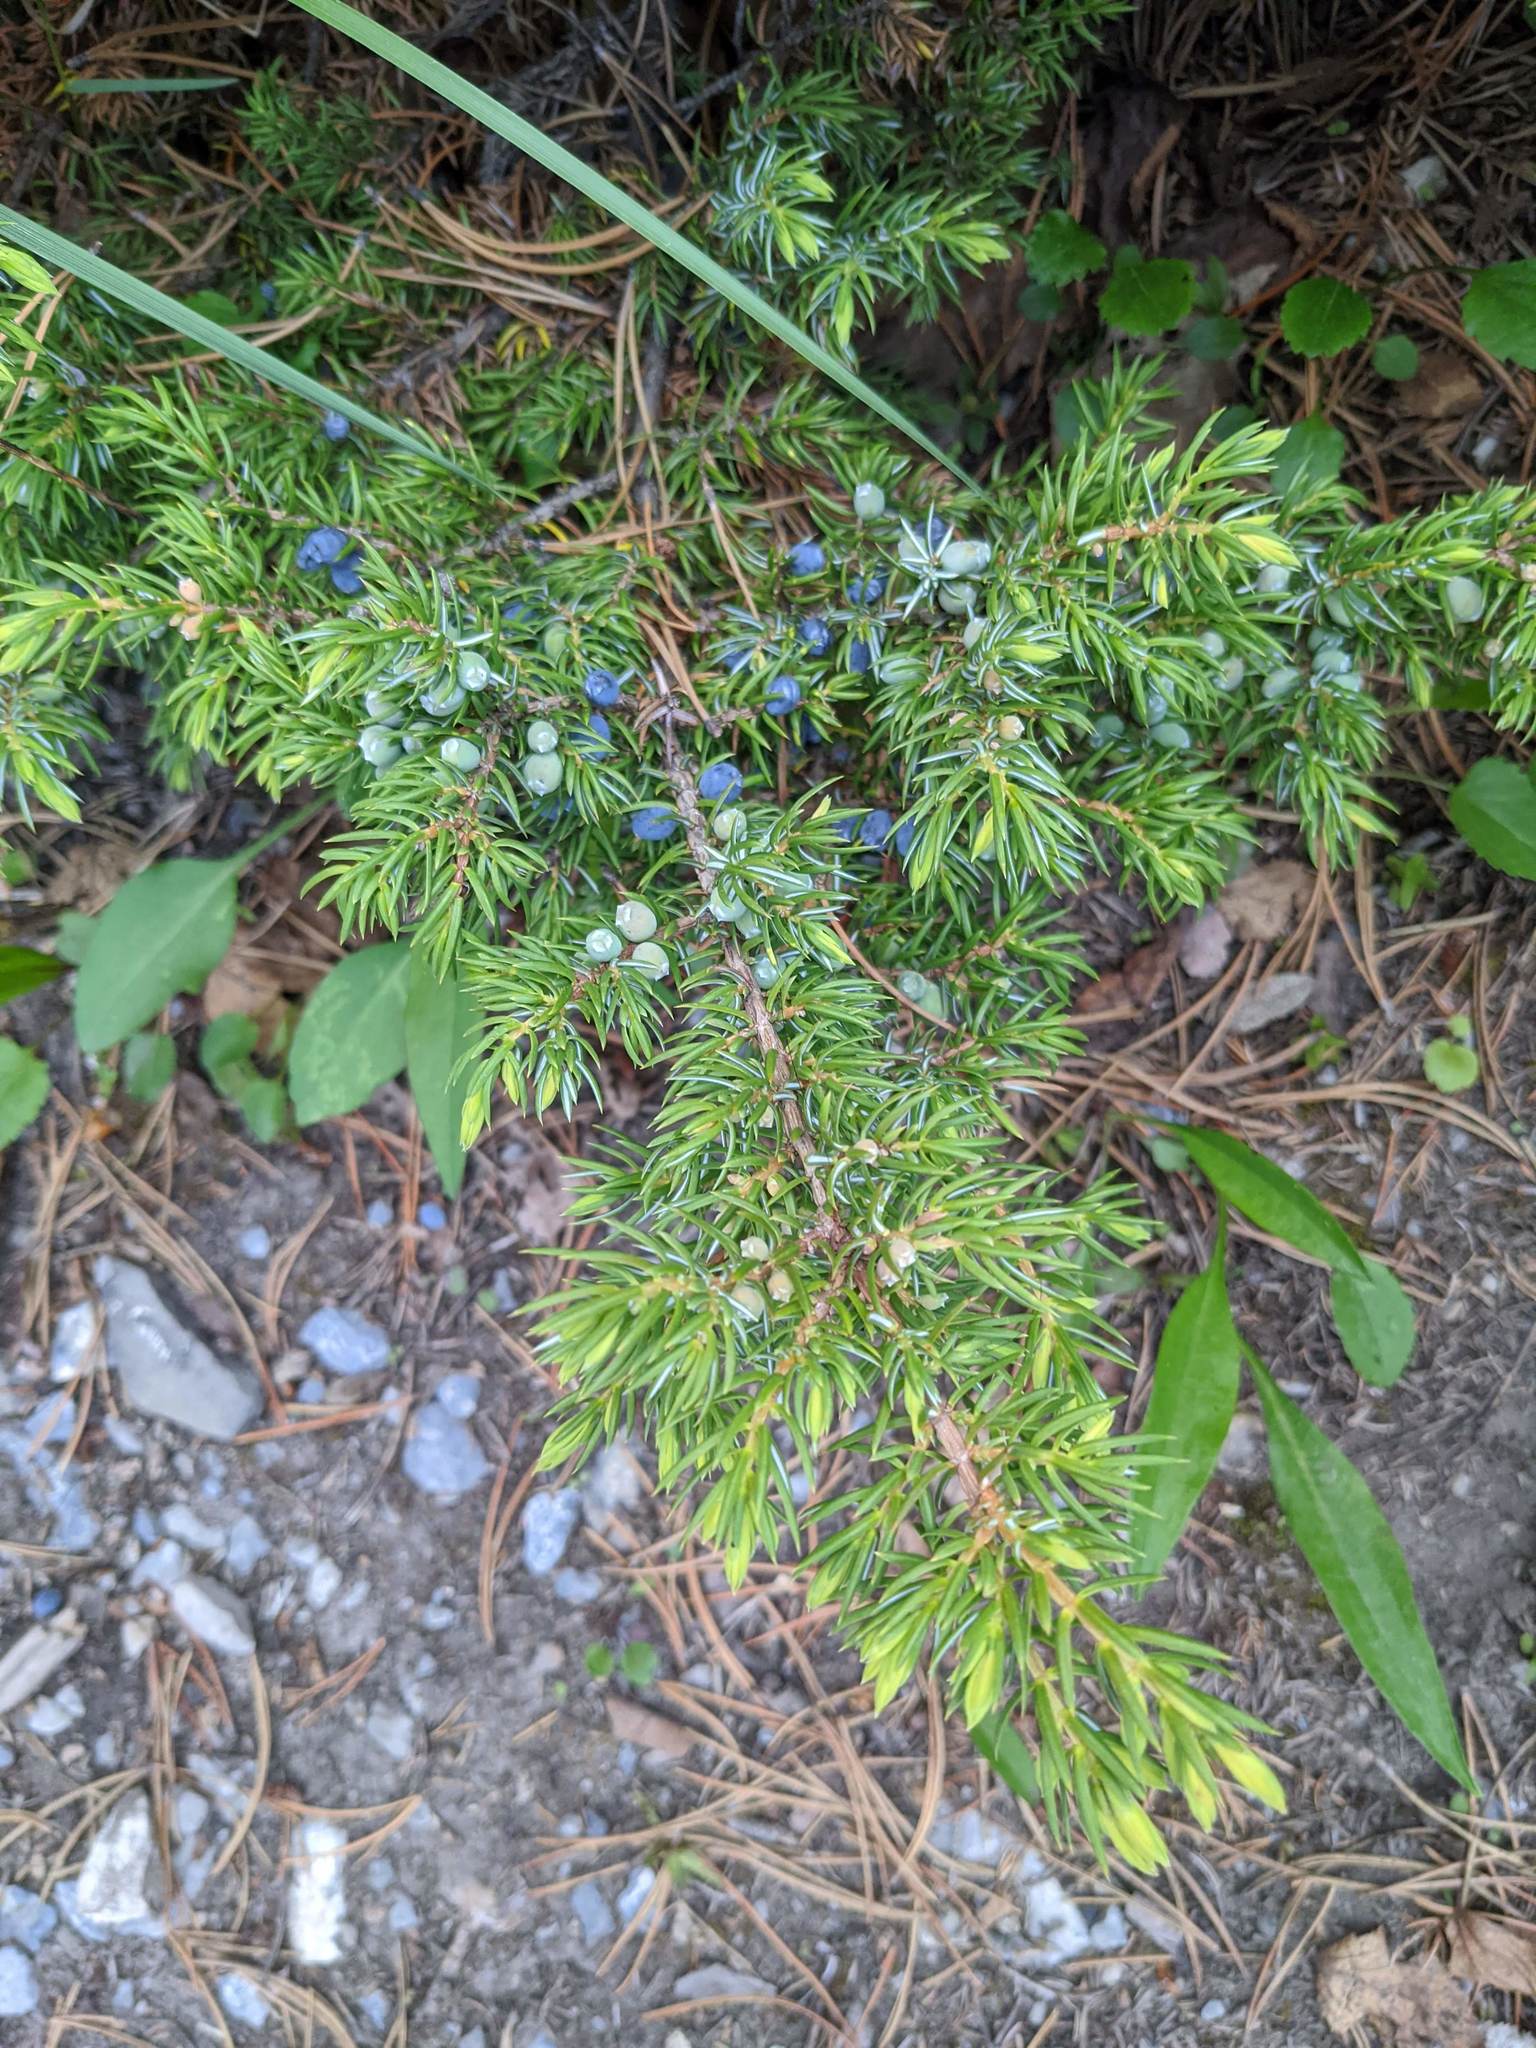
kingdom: Plantae
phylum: Tracheophyta
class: Pinopsida
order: Pinales
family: Cupressaceae
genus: Juniperus
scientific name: Juniperus communis
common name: Common juniper
